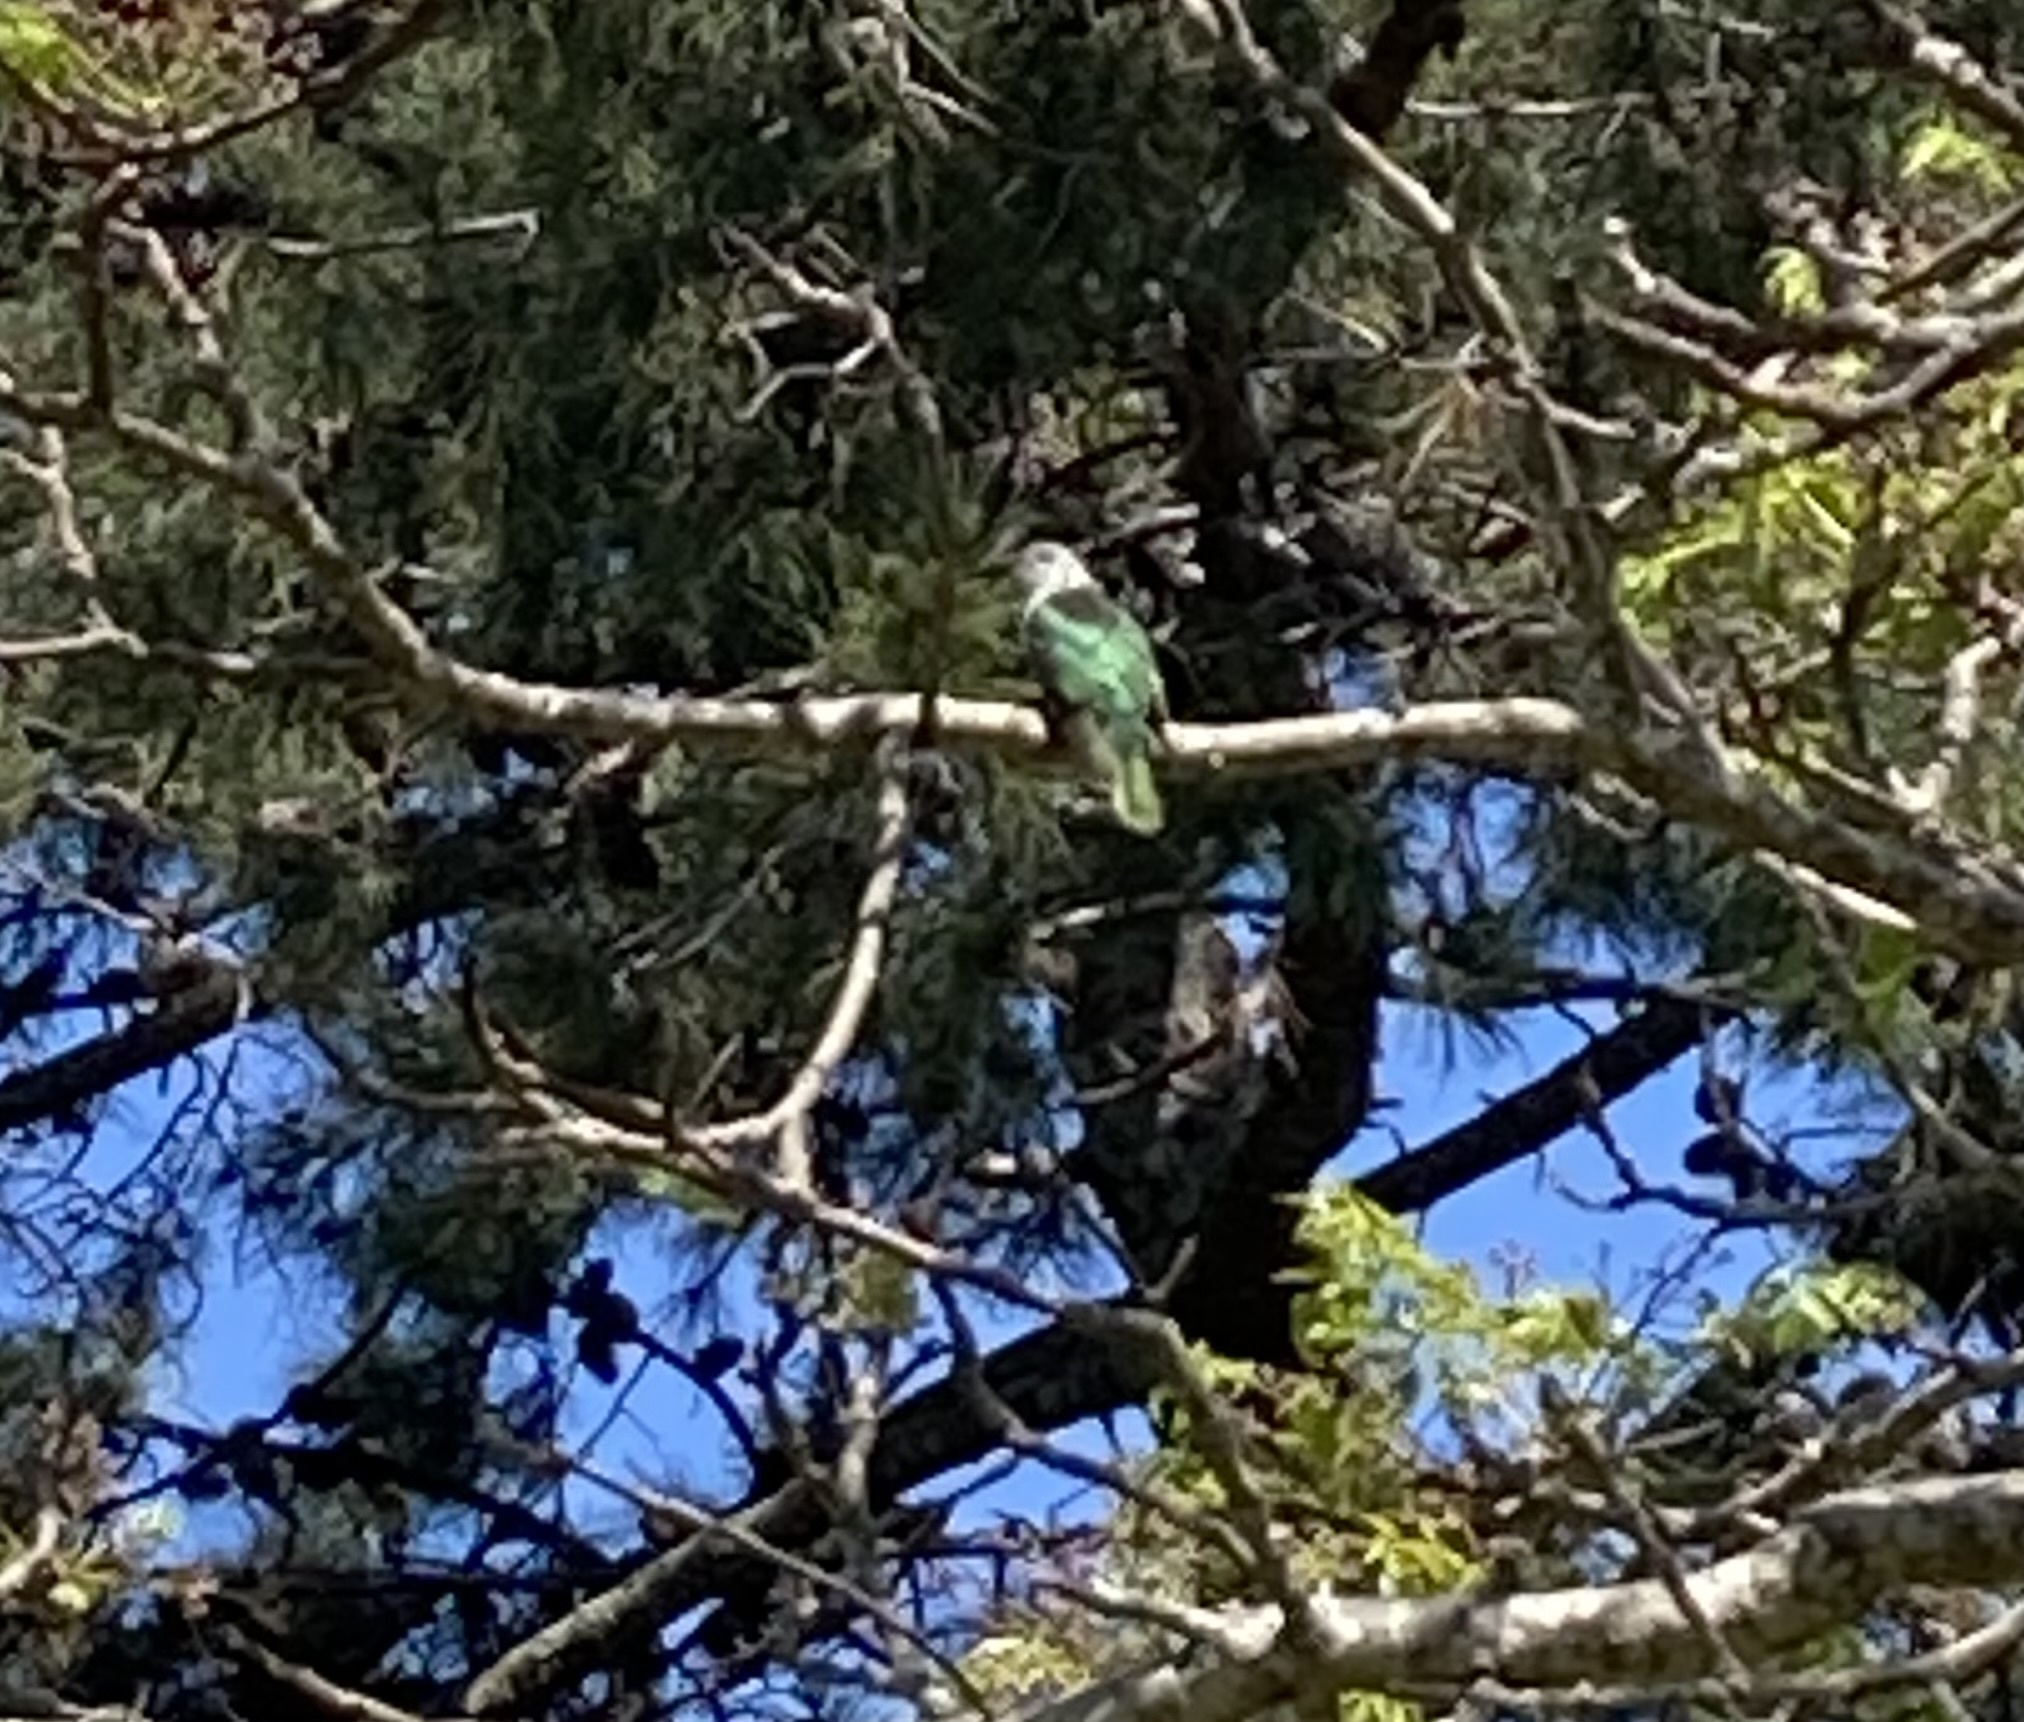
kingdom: Animalia
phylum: Chordata
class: Aves
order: Cuculiformes
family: Cuculidae
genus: Chrysococcyx
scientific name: Chrysococcyx lucidus
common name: Shining bronze cuckoo
